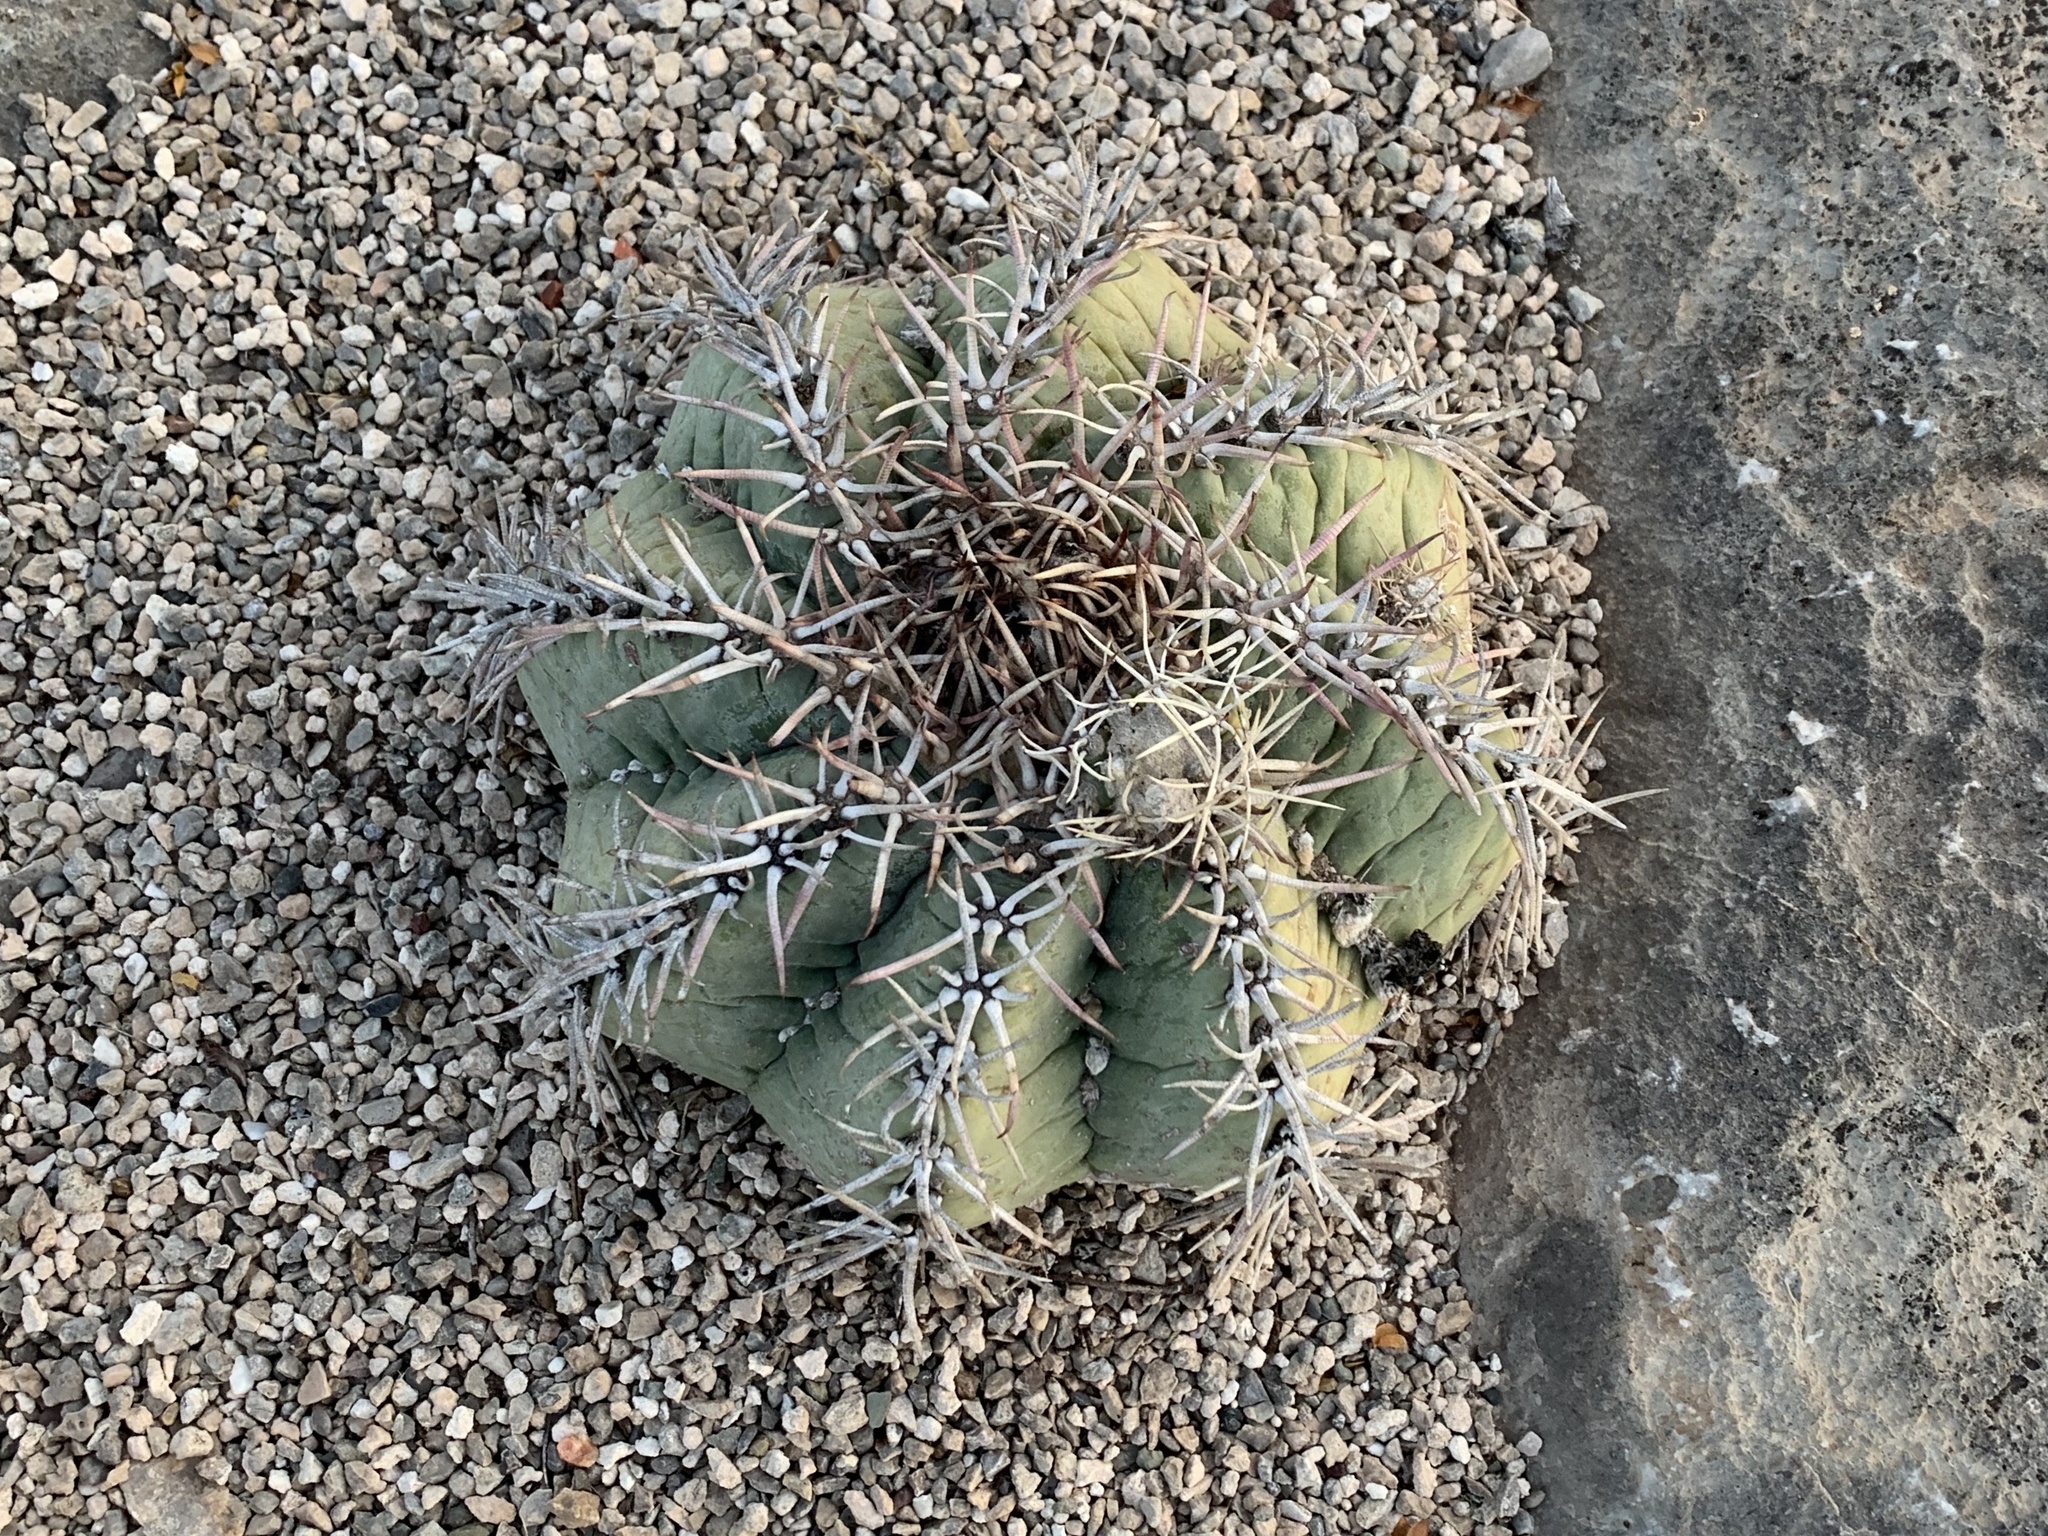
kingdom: Plantae
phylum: Tracheophyta
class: Magnoliopsida
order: Caryophyllales
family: Cactaceae
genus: Echinocactus
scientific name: Echinocactus horizonthalonius
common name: Devilshead
